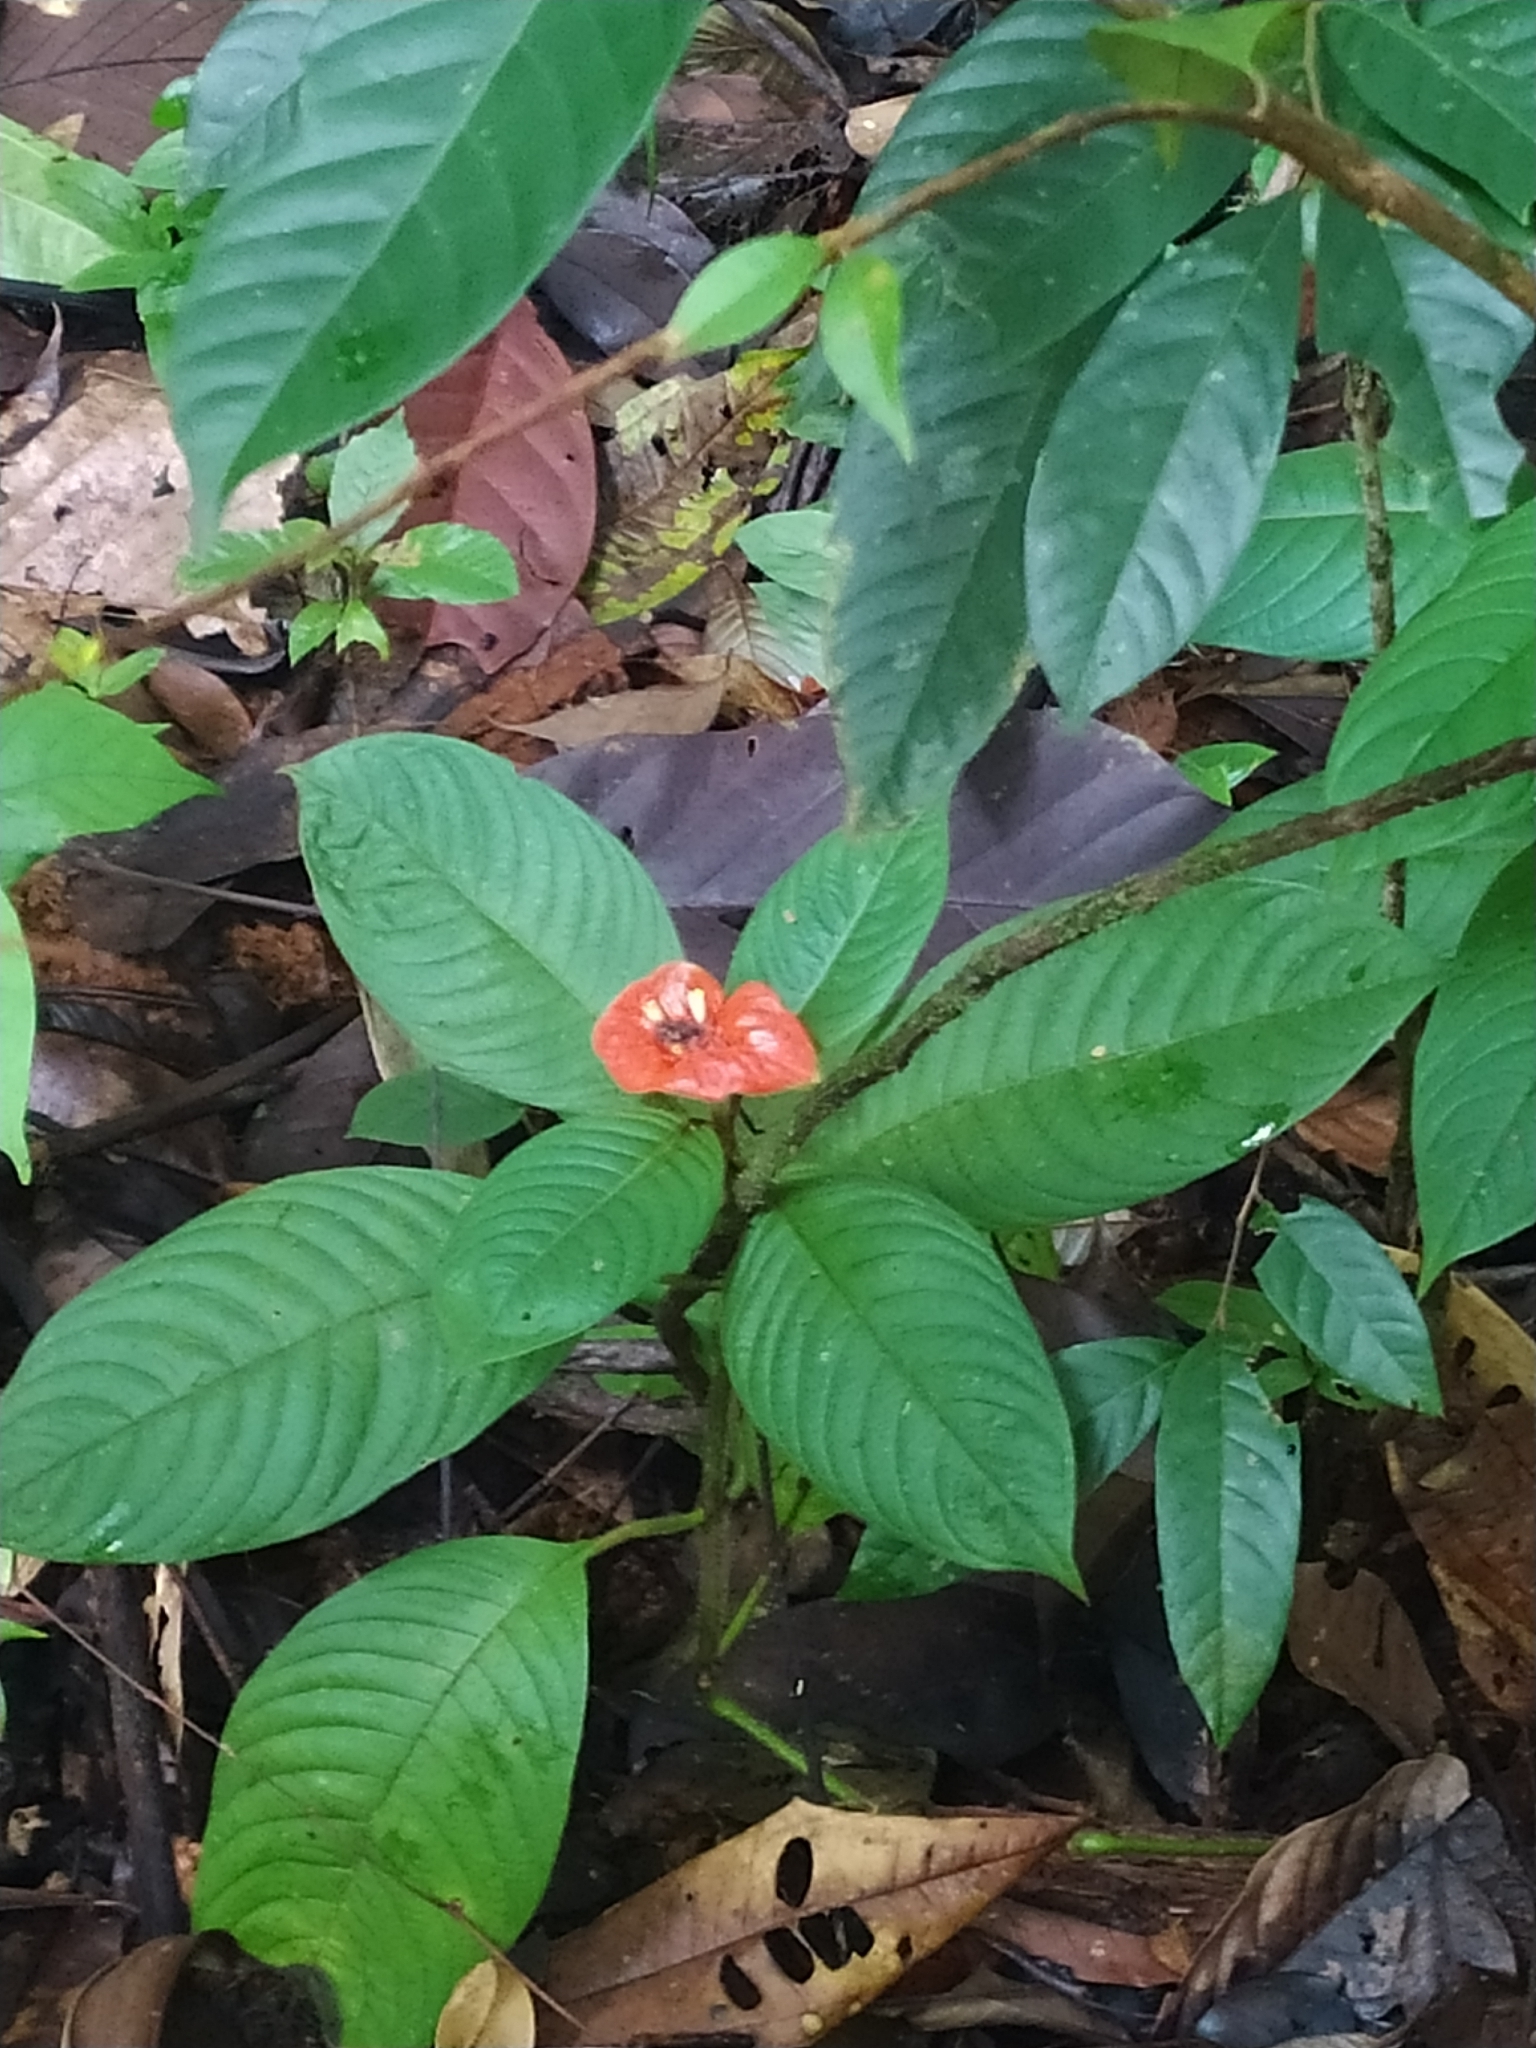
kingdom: Plantae
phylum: Tracheophyta
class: Magnoliopsida
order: Gentianales
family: Rubiaceae
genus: Palicourea
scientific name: Palicourea tomentosa
